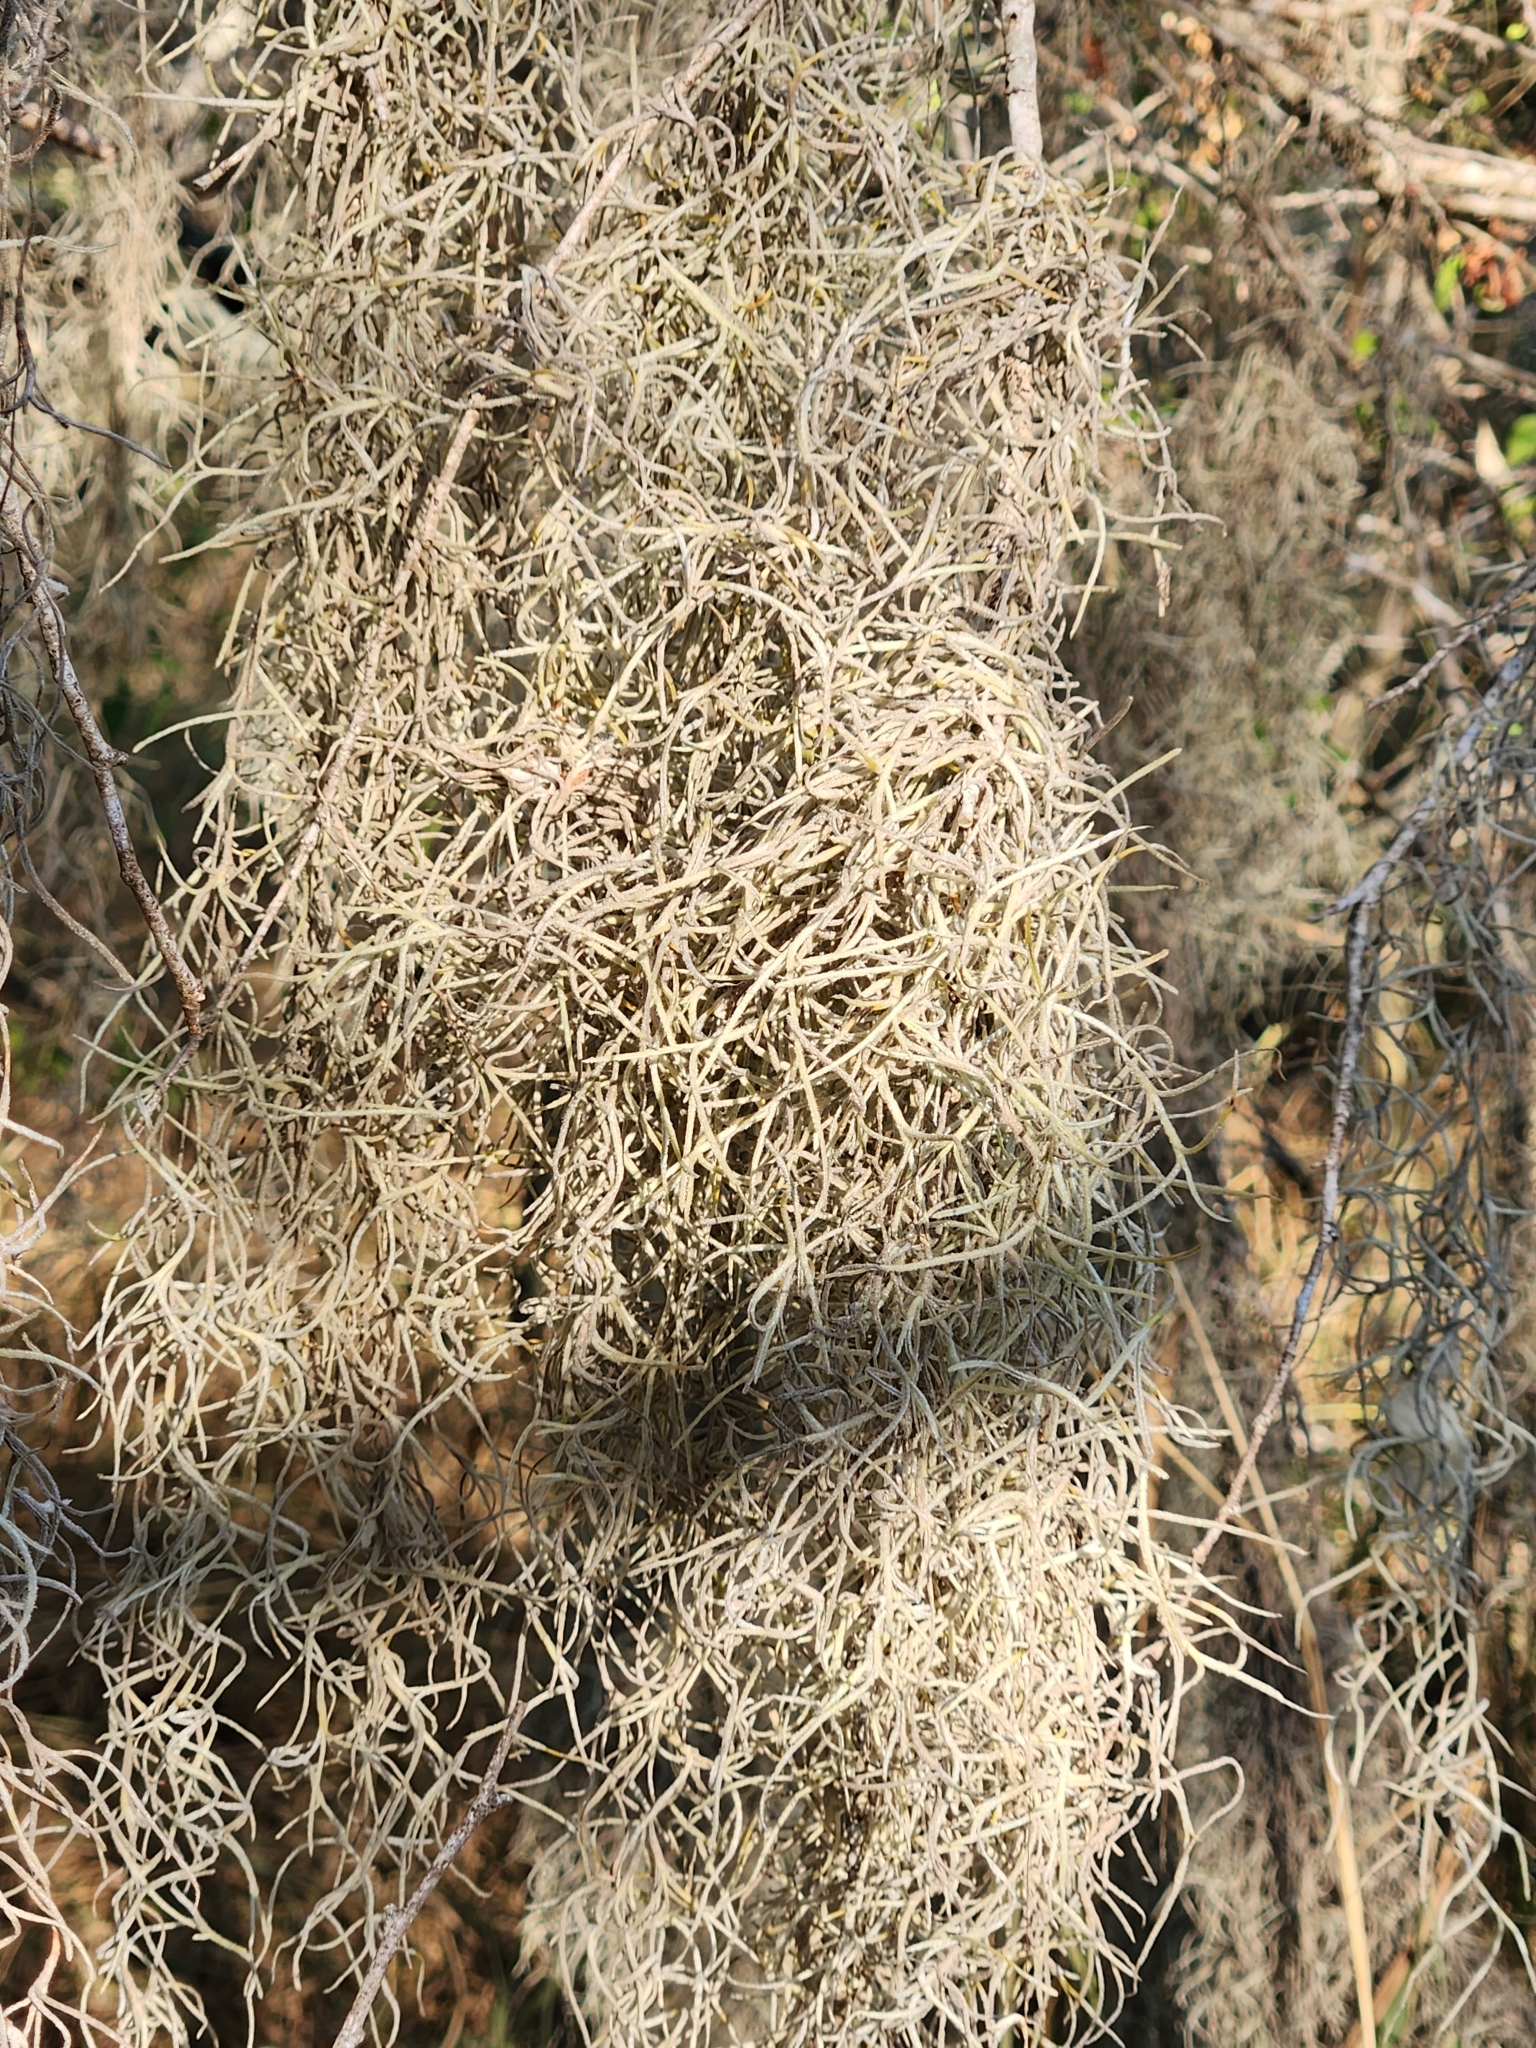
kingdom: Plantae
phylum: Tracheophyta
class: Liliopsida
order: Poales
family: Bromeliaceae
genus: Tillandsia
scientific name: Tillandsia usneoides
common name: Spanish moss
